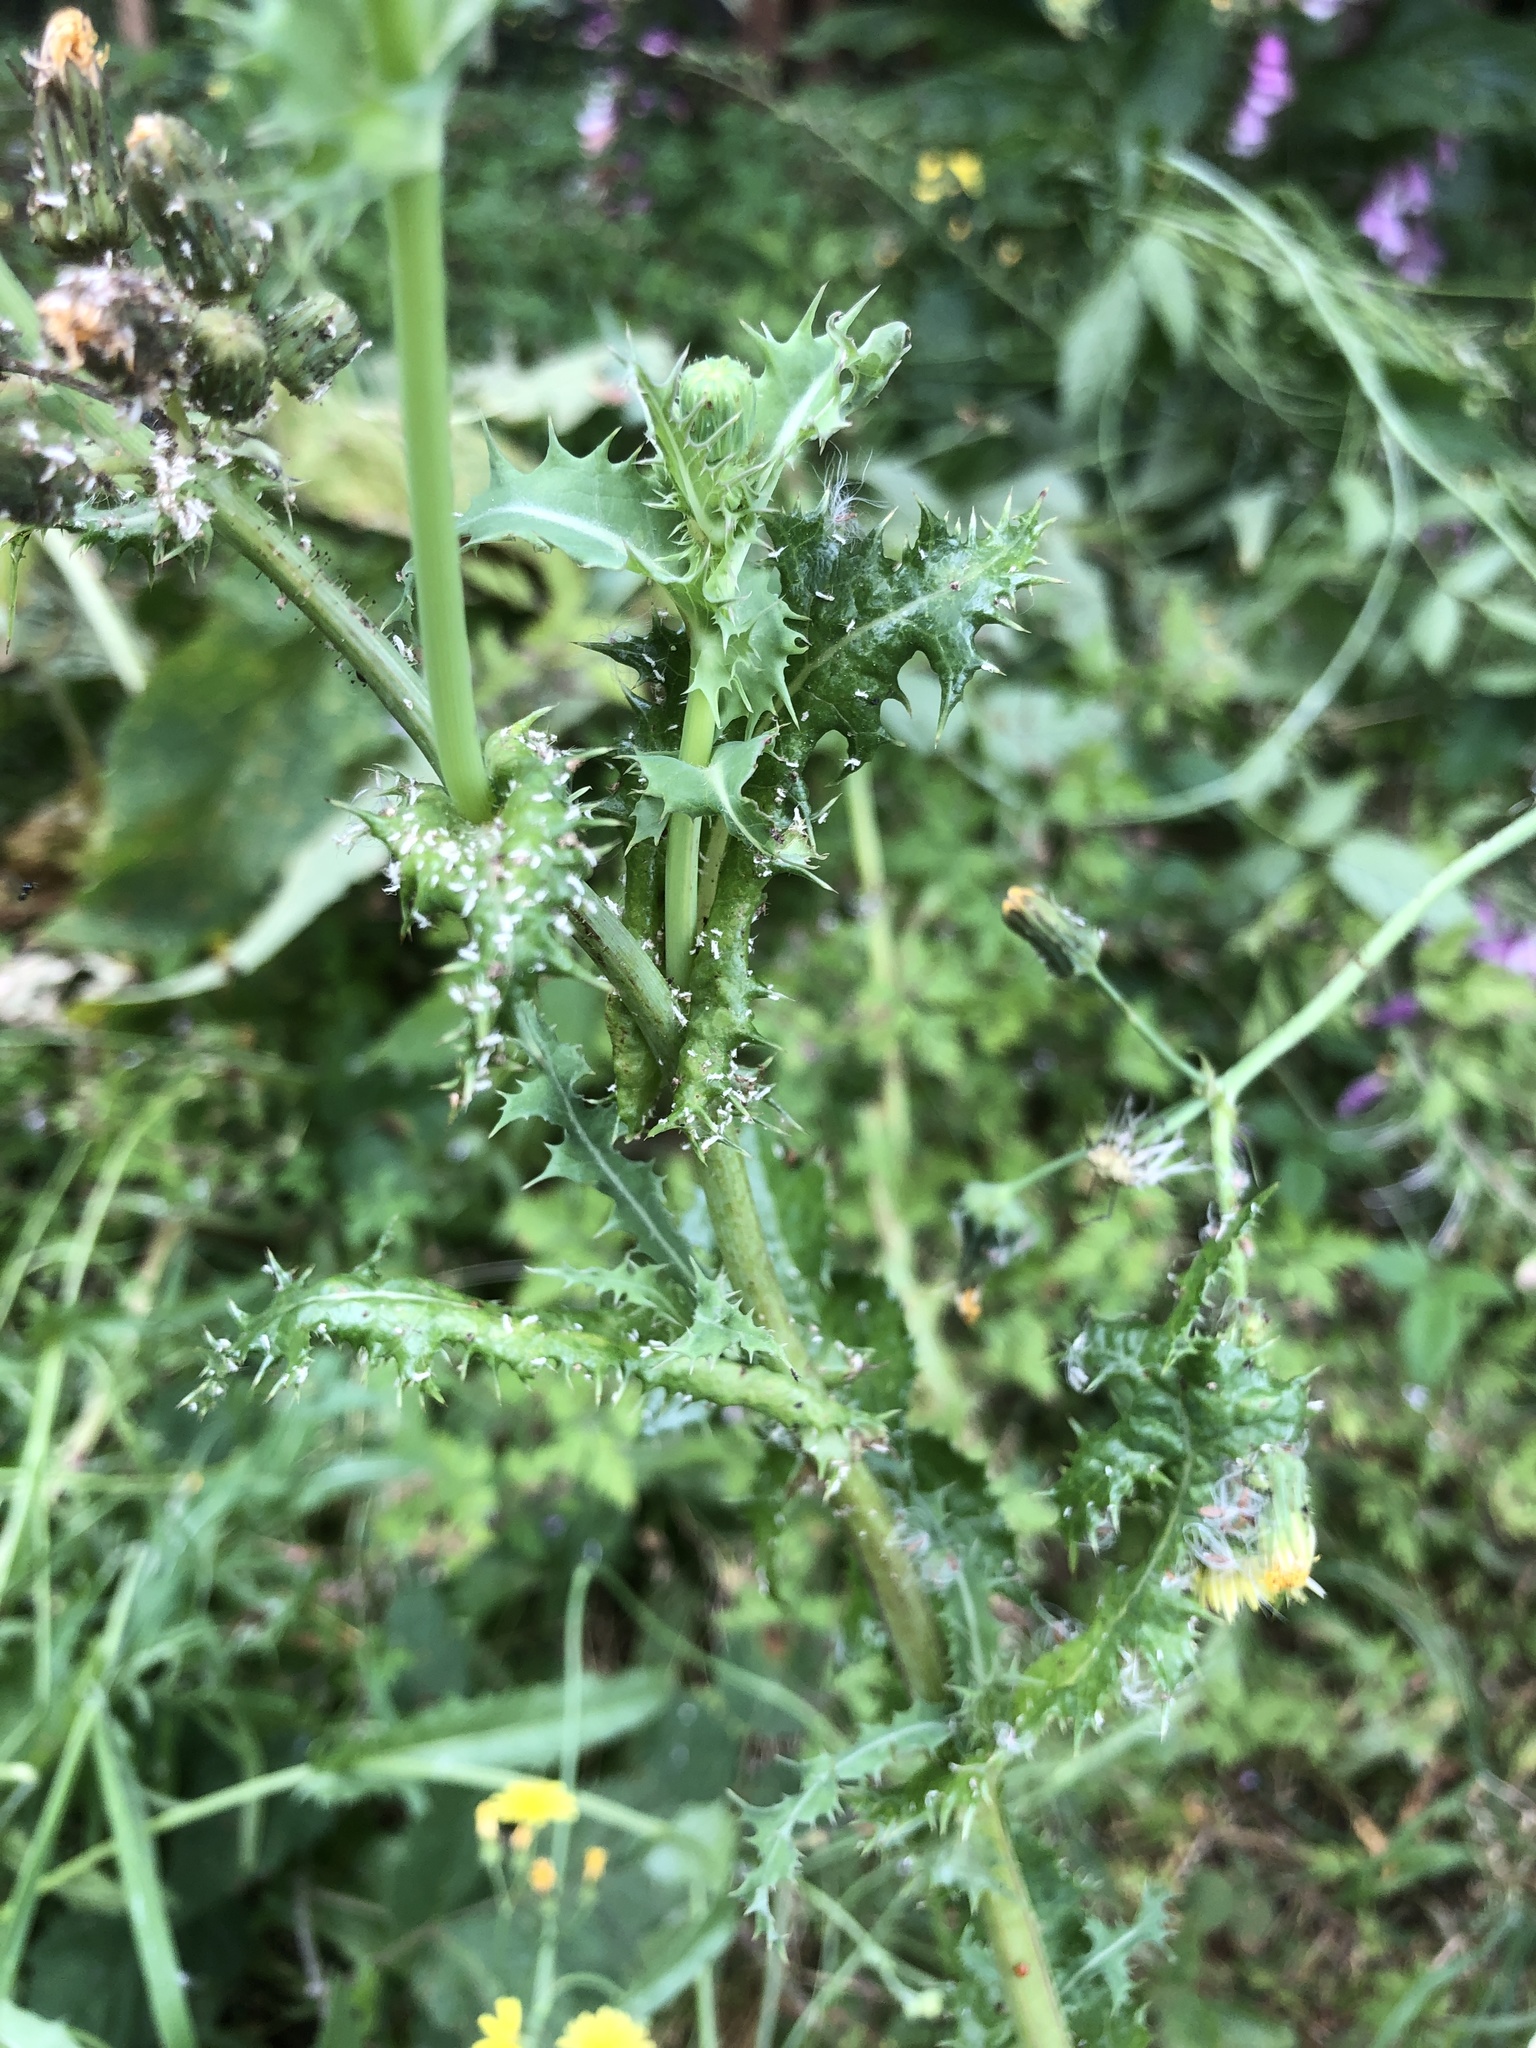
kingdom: Plantae
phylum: Tracheophyta
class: Magnoliopsida
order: Asterales
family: Asteraceae
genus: Sonchus
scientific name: Sonchus asper
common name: Prickly sow-thistle
